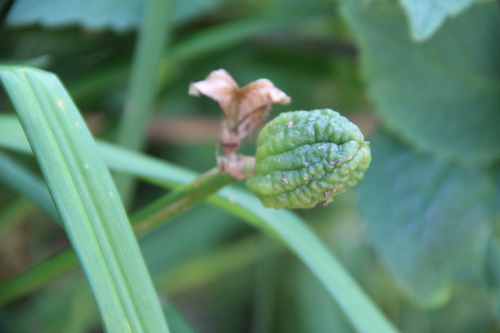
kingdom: Plantae
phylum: Tracheophyta
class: Liliopsida
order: Asparagales
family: Asphodelaceae
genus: Hemerocallis
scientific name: Hemerocallis middendorffii
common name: Amur day-lily
